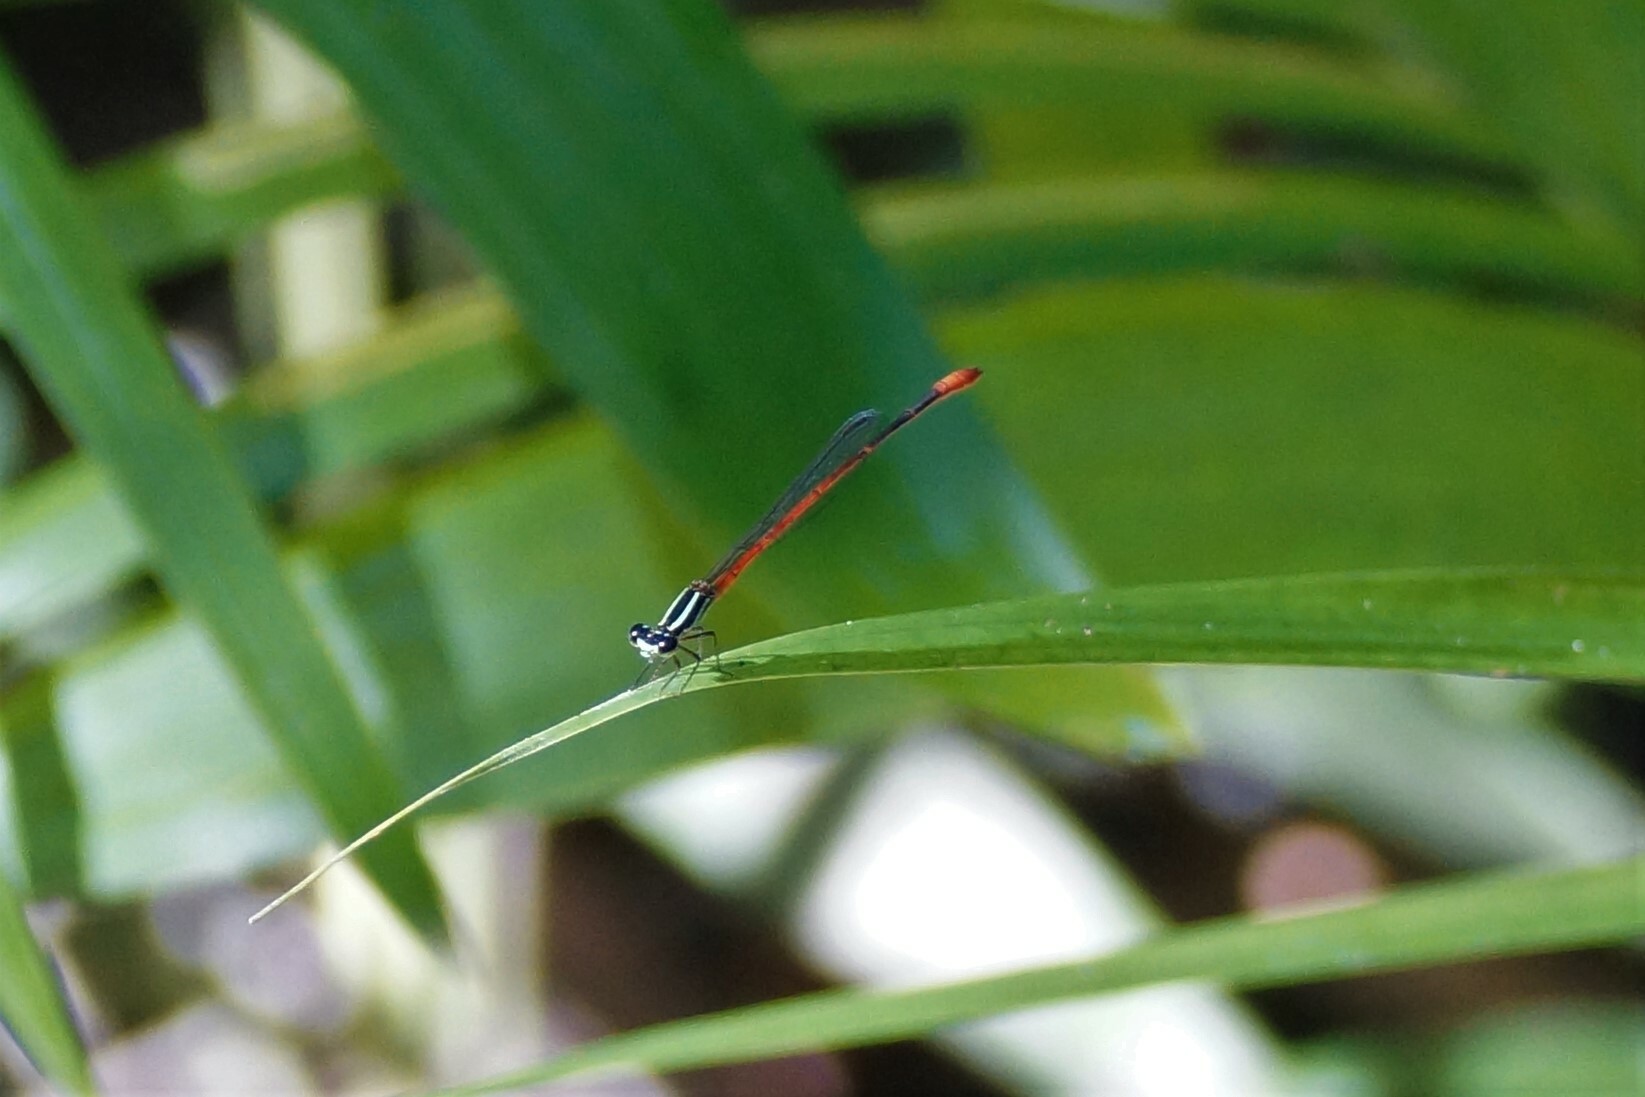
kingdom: Animalia
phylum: Arthropoda
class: Insecta
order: Odonata
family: Coenagrionidae
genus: Argiocnemis
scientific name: Argiocnemis rubescens
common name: Red-tipped shadefly
